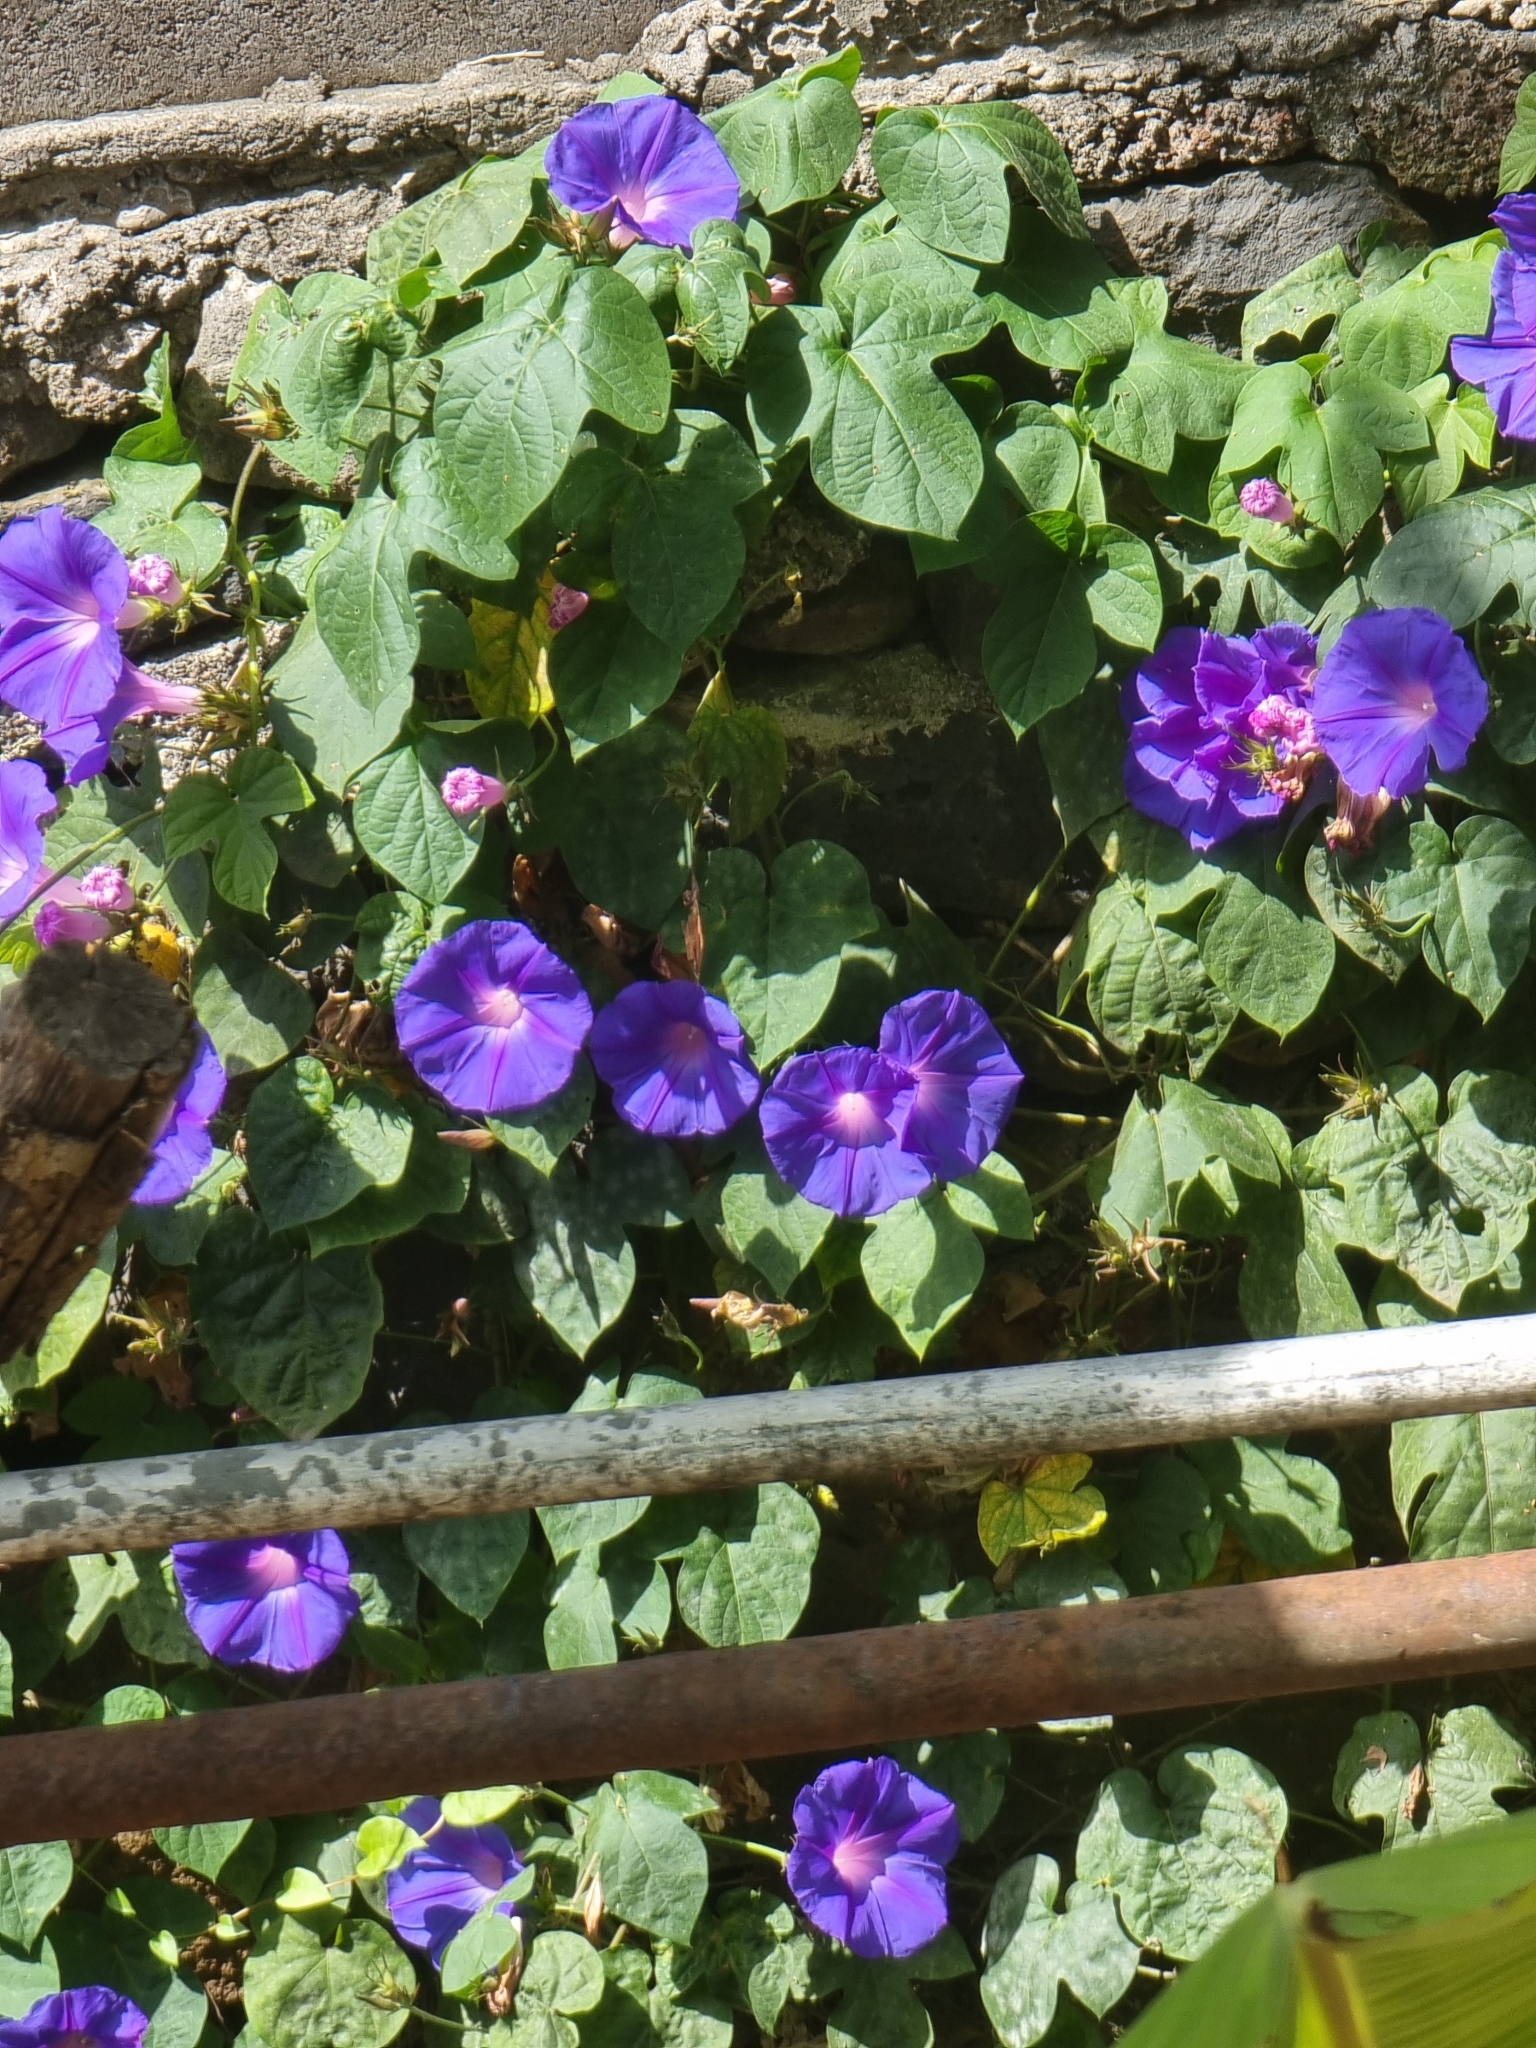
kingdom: Plantae
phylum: Tracheophyta
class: Magnoliopsida
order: Solanales
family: Convolvulaceae
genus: Ipomoea
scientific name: Ipomoea indica
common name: Blue dawnflower
